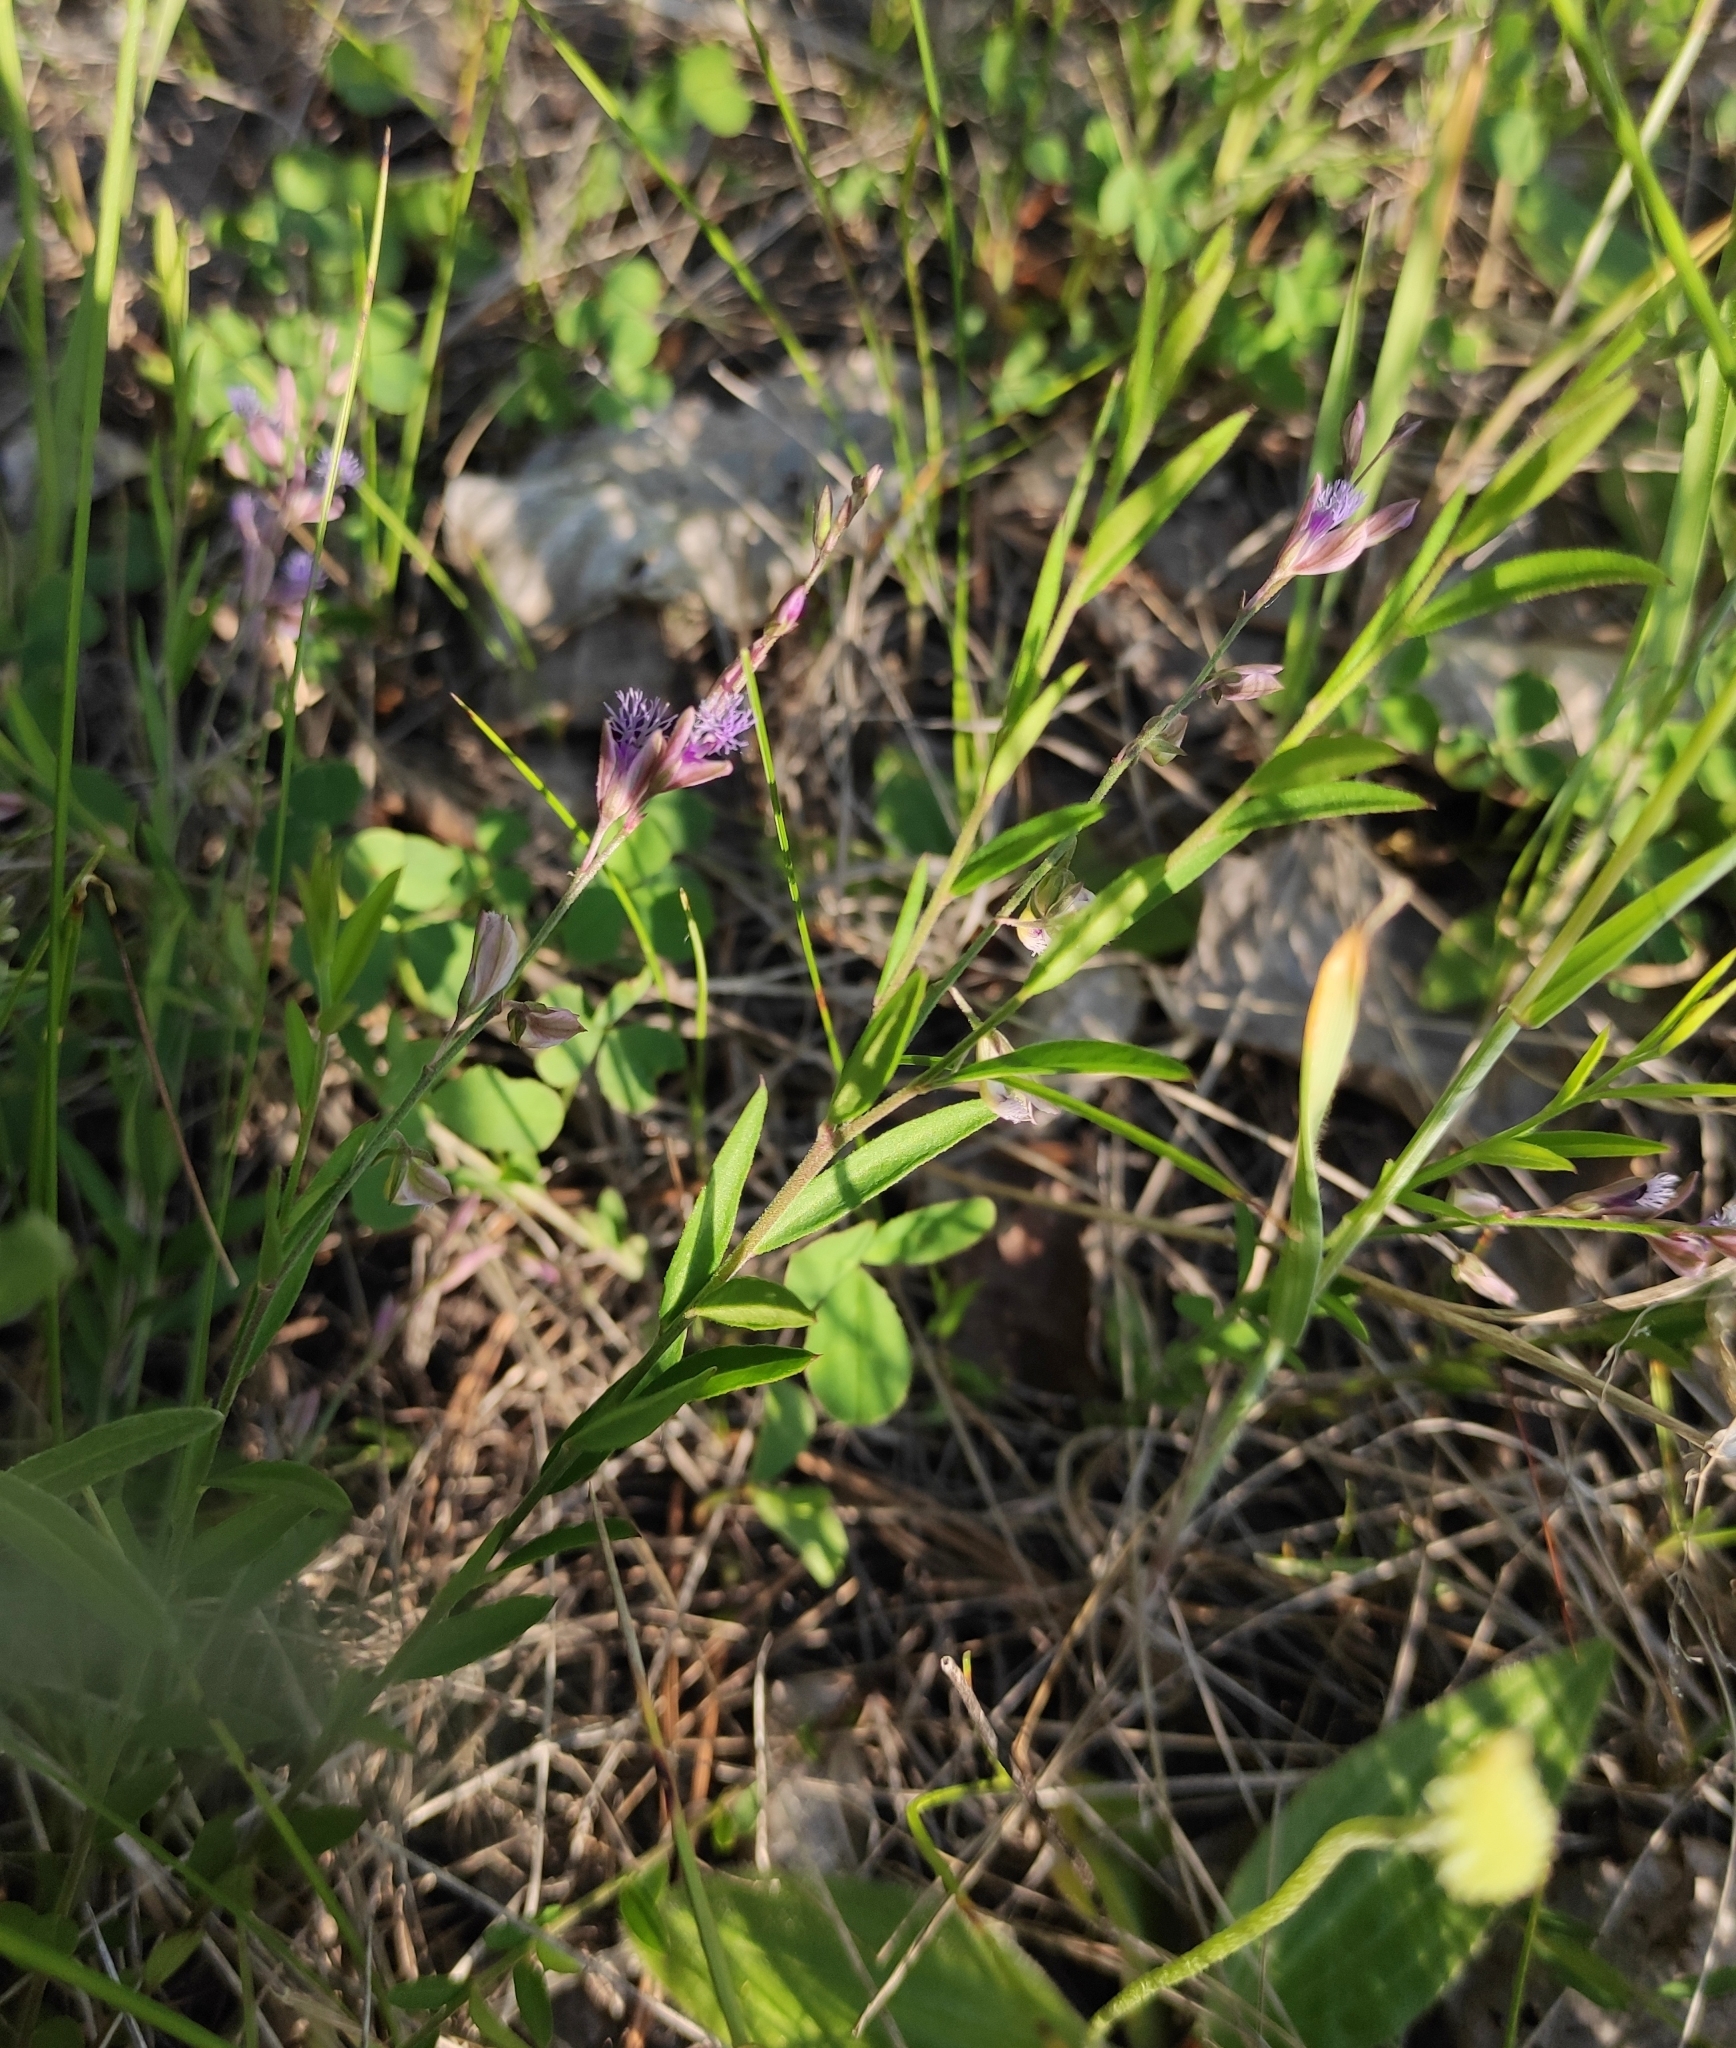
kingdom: Plantae
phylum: Tracheophyta
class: Magnoliopsida
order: Fabales
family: Polygalaceae
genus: Polygala
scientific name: Polygala sibirica
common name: Siberian polygala
